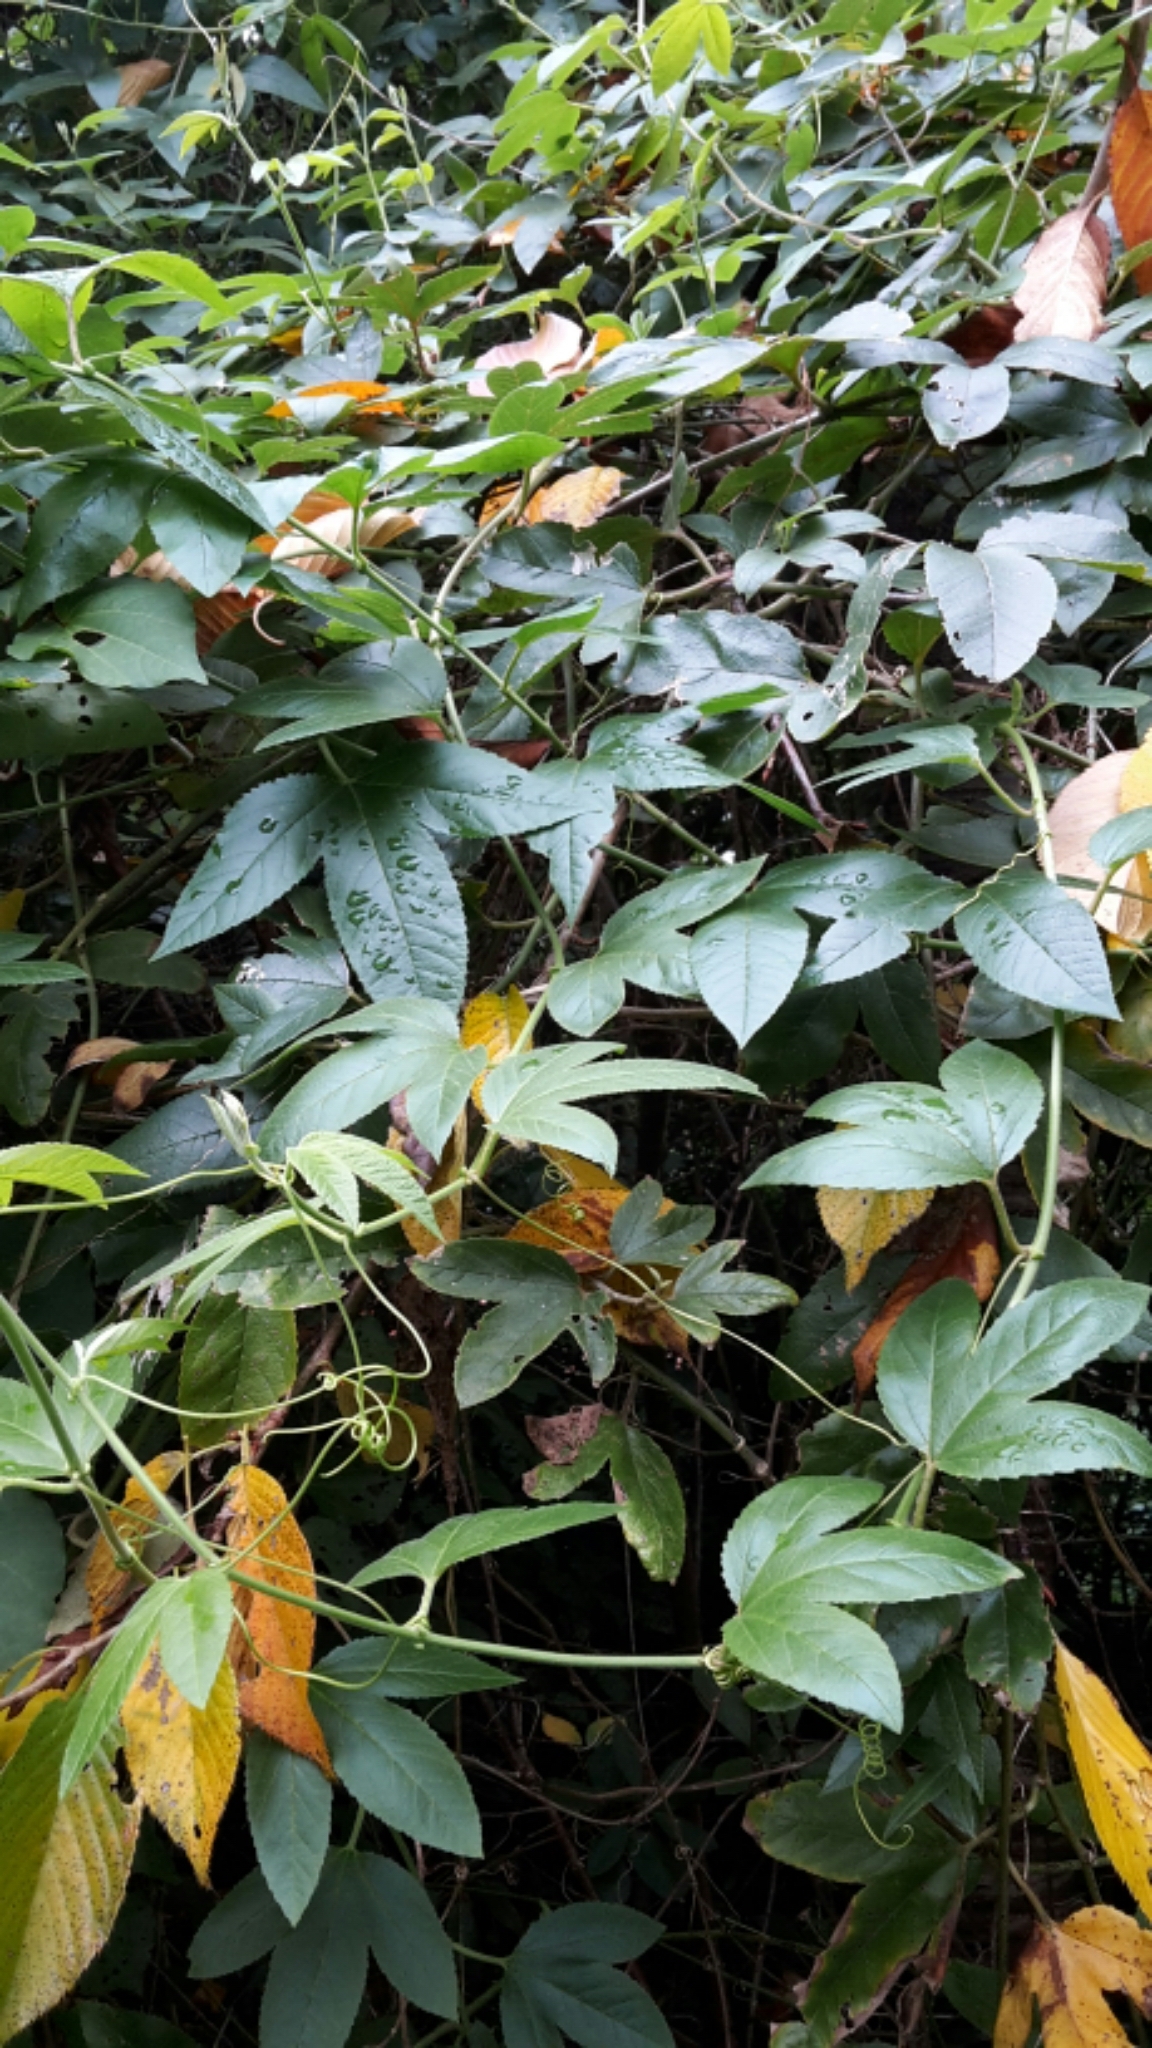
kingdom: Plantae
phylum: Tracheophyta
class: Magnoliopsida
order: Malpighiales
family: Passifloraceae
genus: Passiflora
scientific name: Passiflora tripartita
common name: Banana poka
